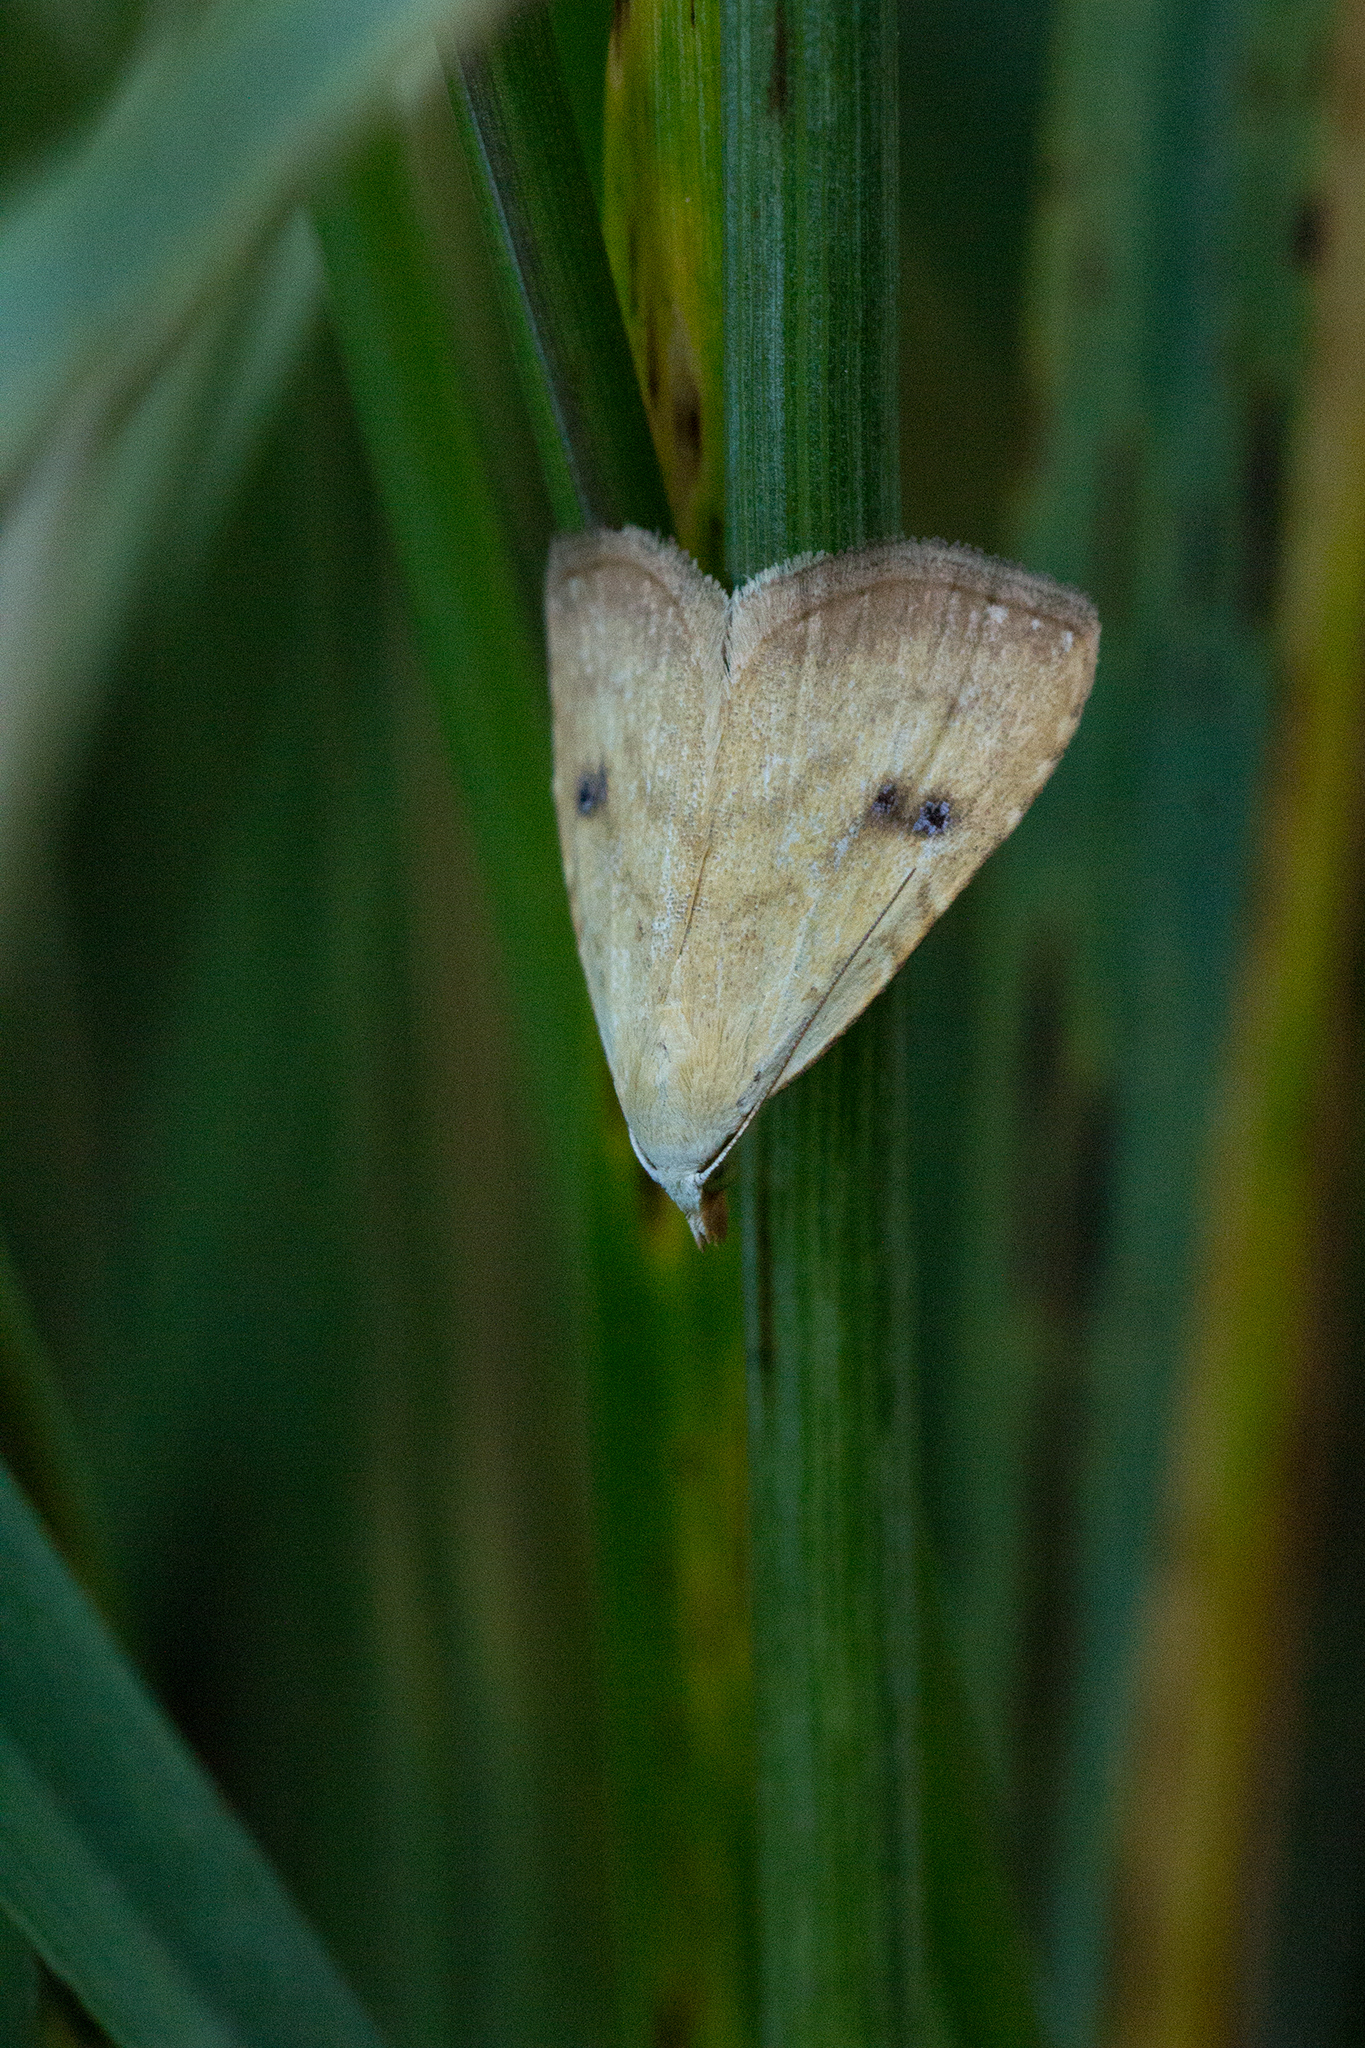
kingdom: Animalia
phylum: Arthropoda
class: Insecta
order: Lepidoptera
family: Erebidae
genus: Rivula
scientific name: Rivula sericealis
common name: Straw dot
